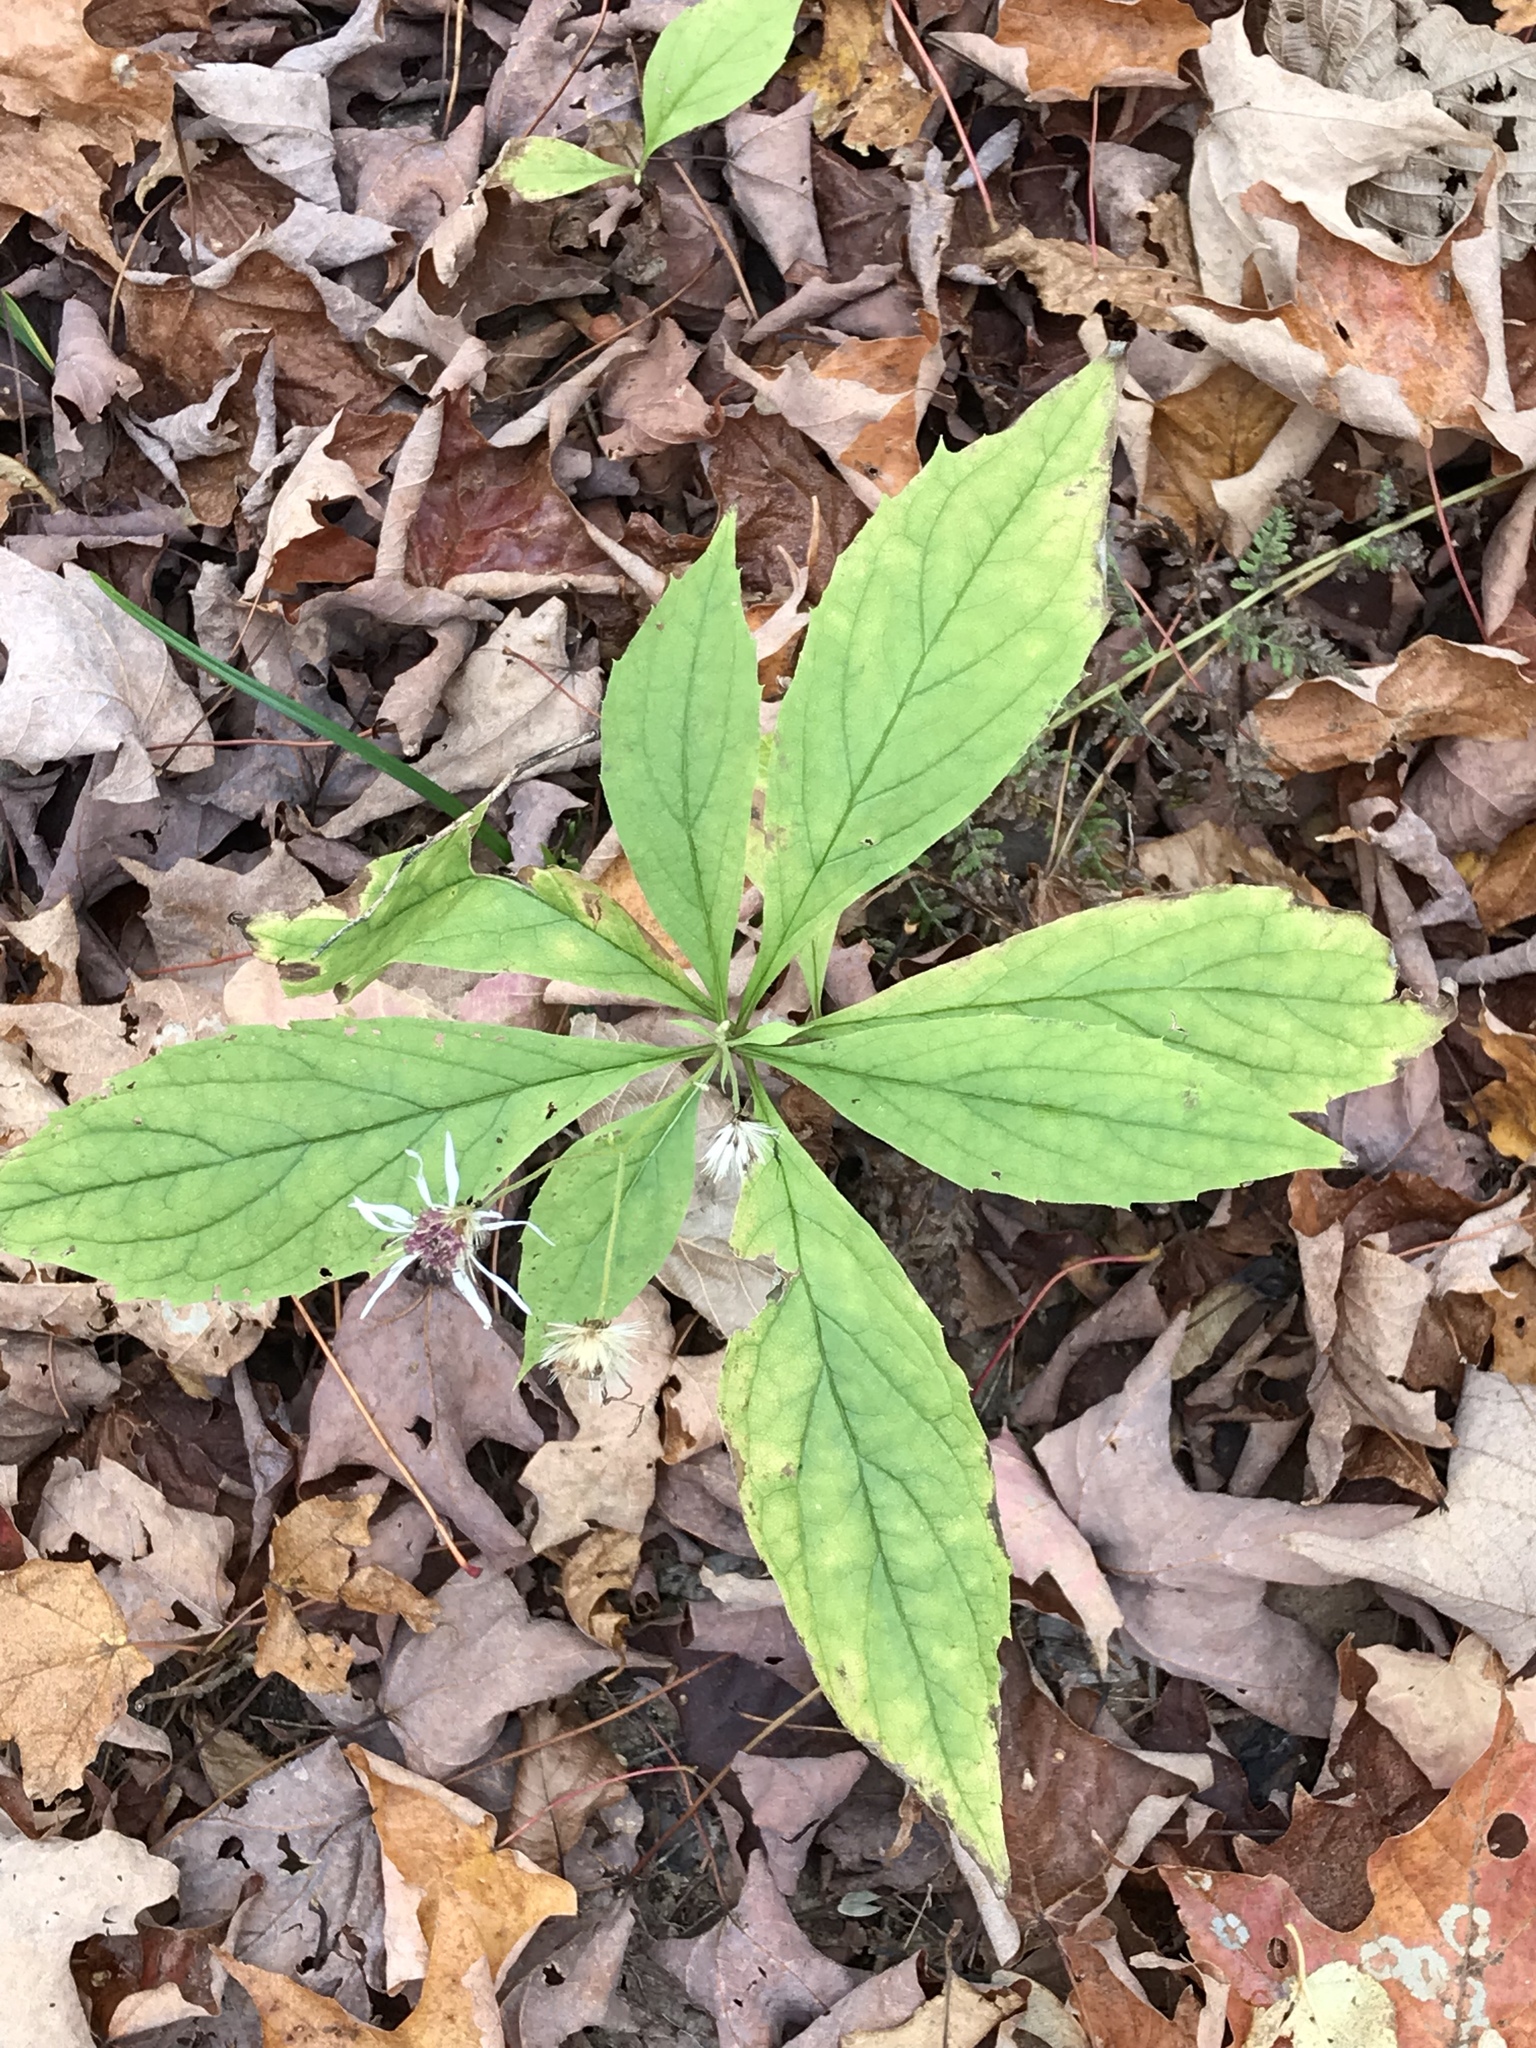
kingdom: Plantae
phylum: Tracheophyta
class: Magnoliopsida
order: Asterales
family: Asteraceae
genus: Oclemena
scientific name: Oclemena acuminata
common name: Mountain aster
